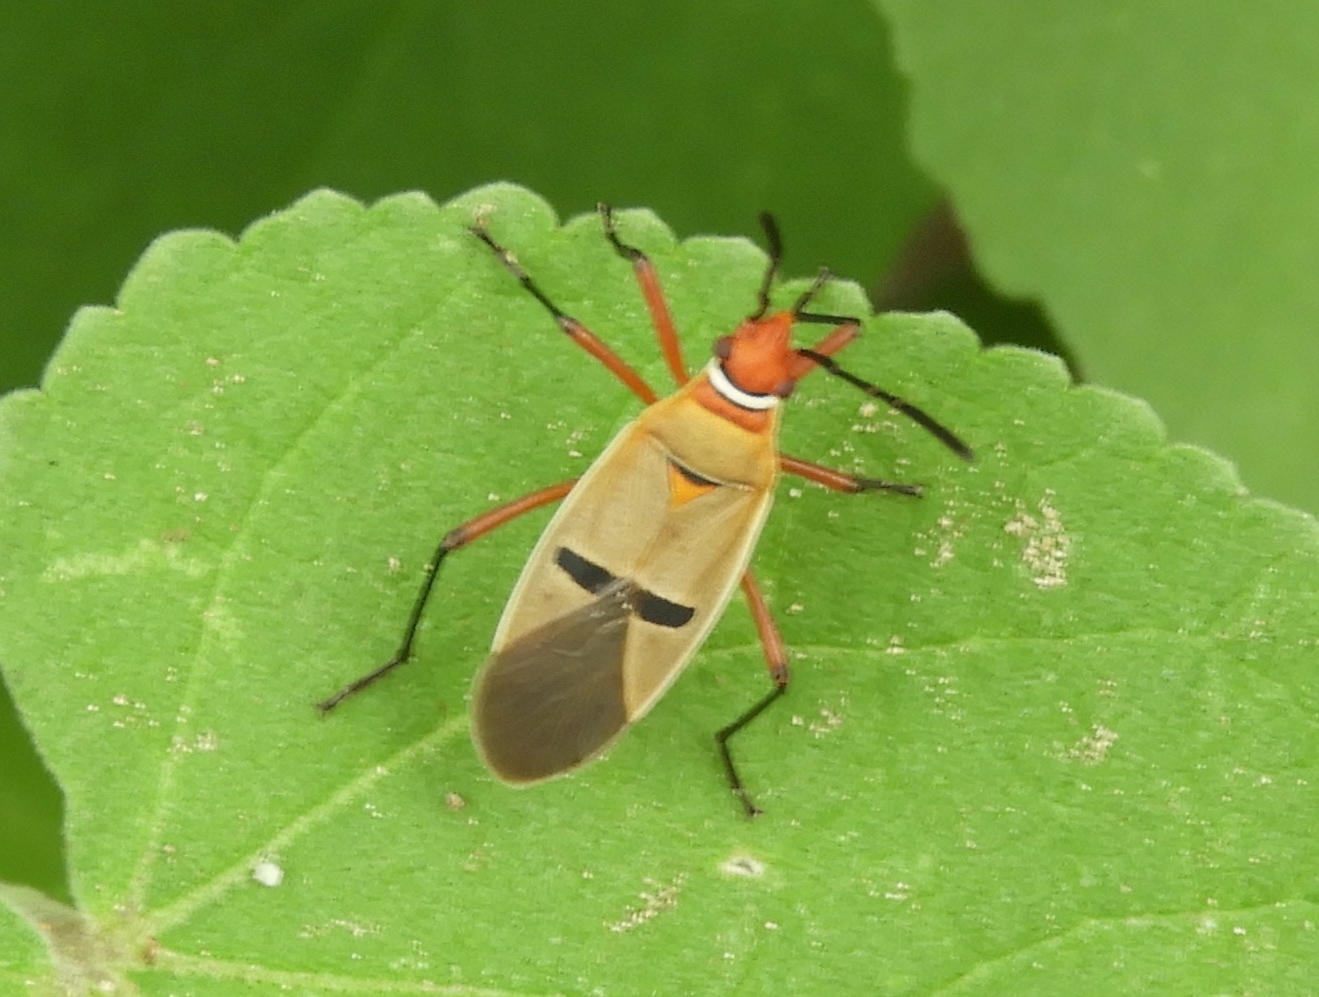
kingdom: Animalia
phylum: Arthropoda
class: Insecta
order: Hemiptera
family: Pyrrhocoridae
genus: Dysdercus
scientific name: Dysdercus
